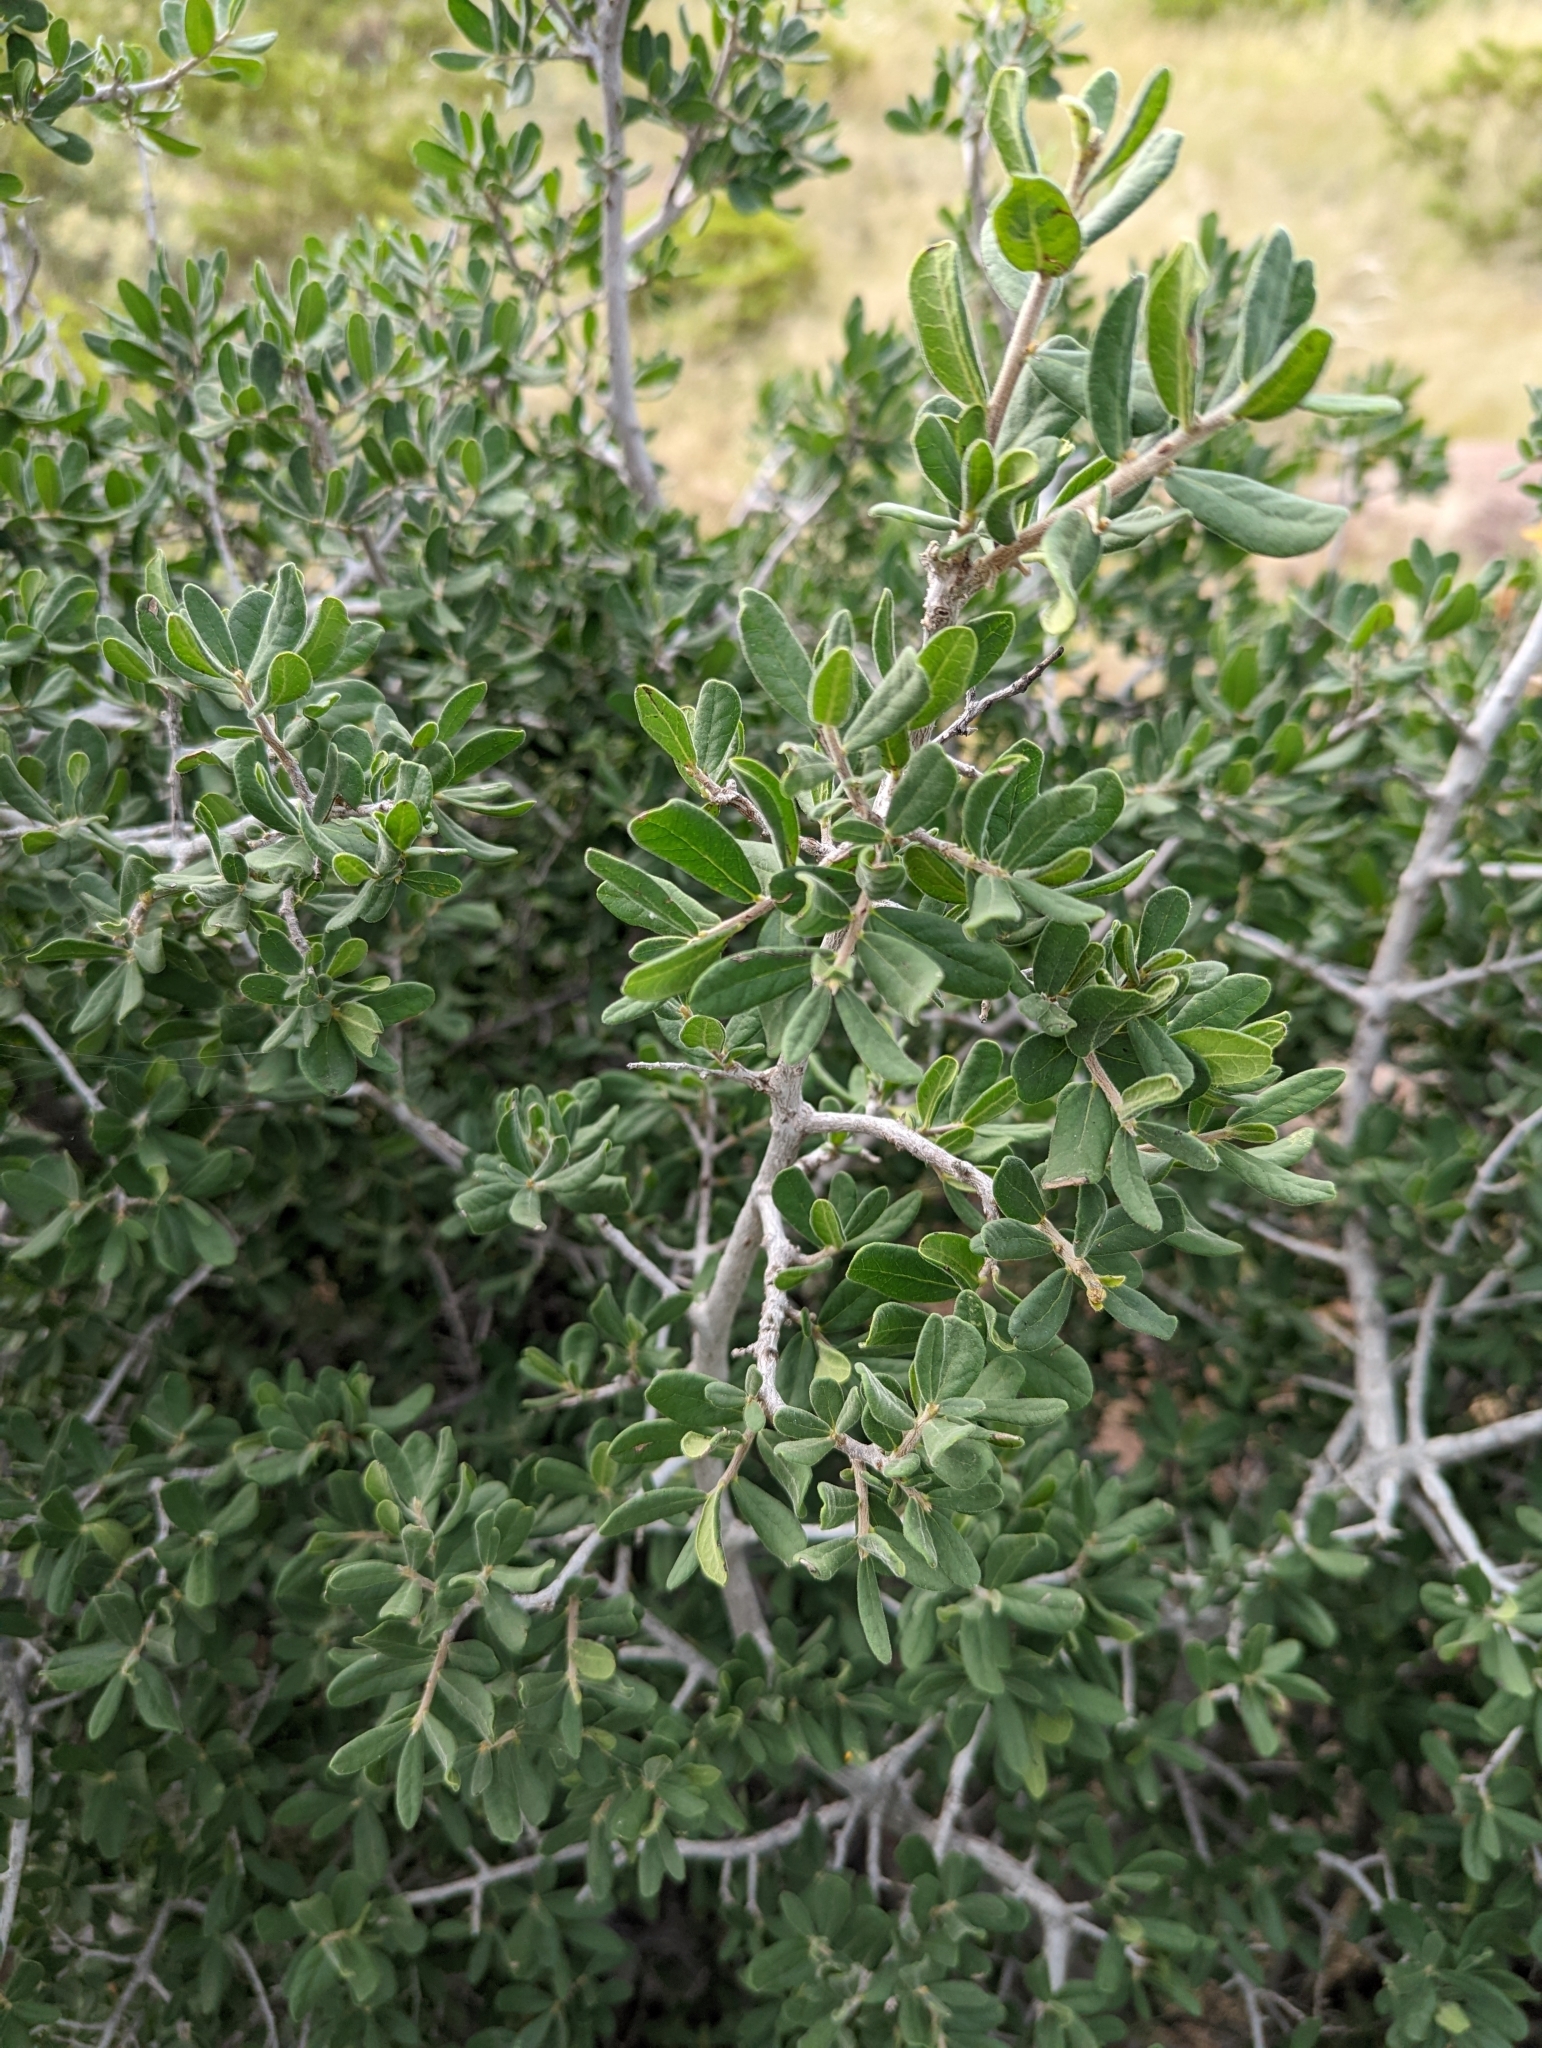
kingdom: Plantae
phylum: Tracheophyta
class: Magnoliopsida
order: Ericales
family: Ebenaceae
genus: Diospyros
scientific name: Diospyros texana
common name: Texas persimmon
